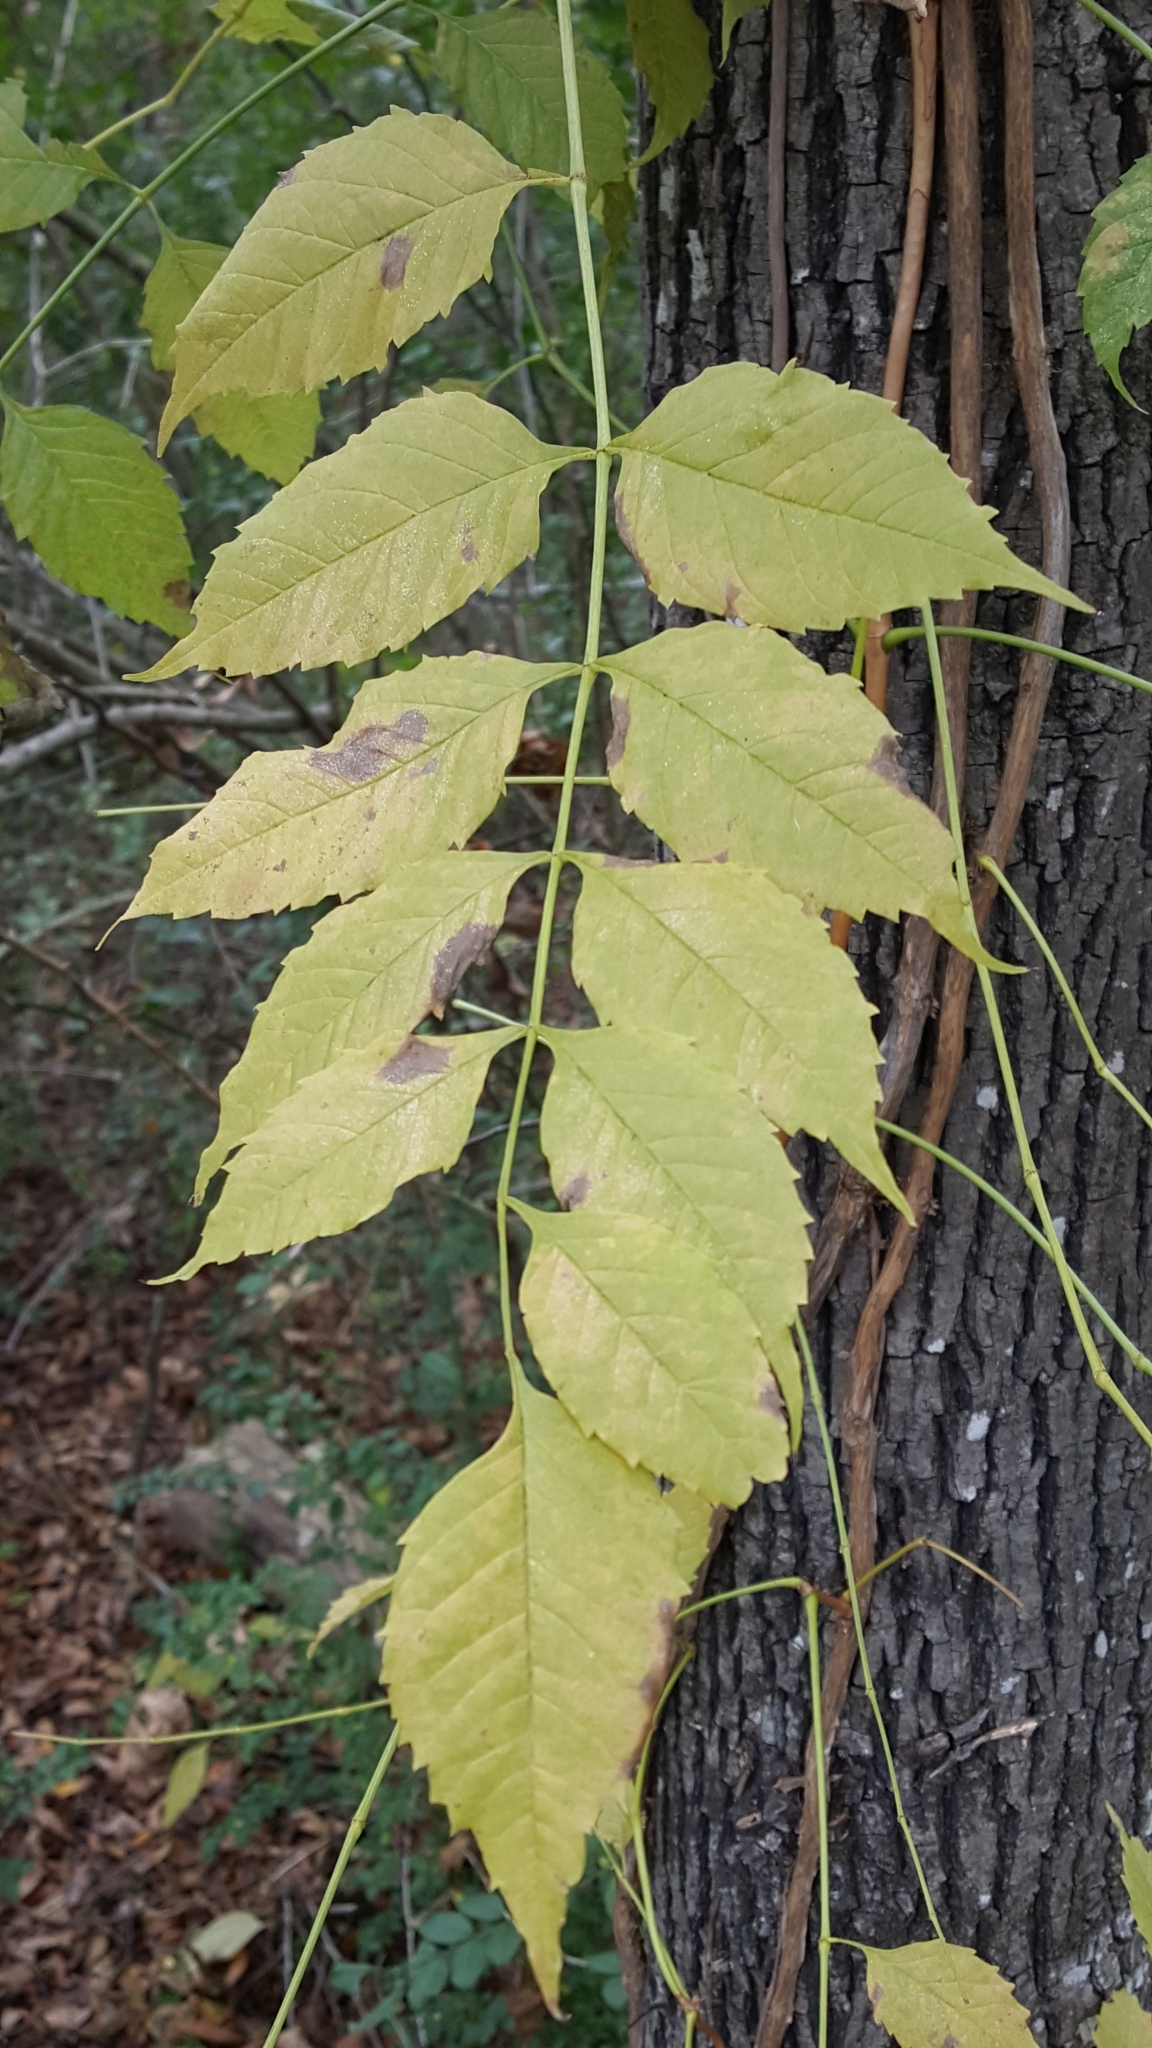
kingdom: Plantae
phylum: Tracheophyta
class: Magnoliopsida
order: Lamiales
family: Bignoniaceae
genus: Campsis
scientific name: Campsis radicans
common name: Trumpet-creeper
